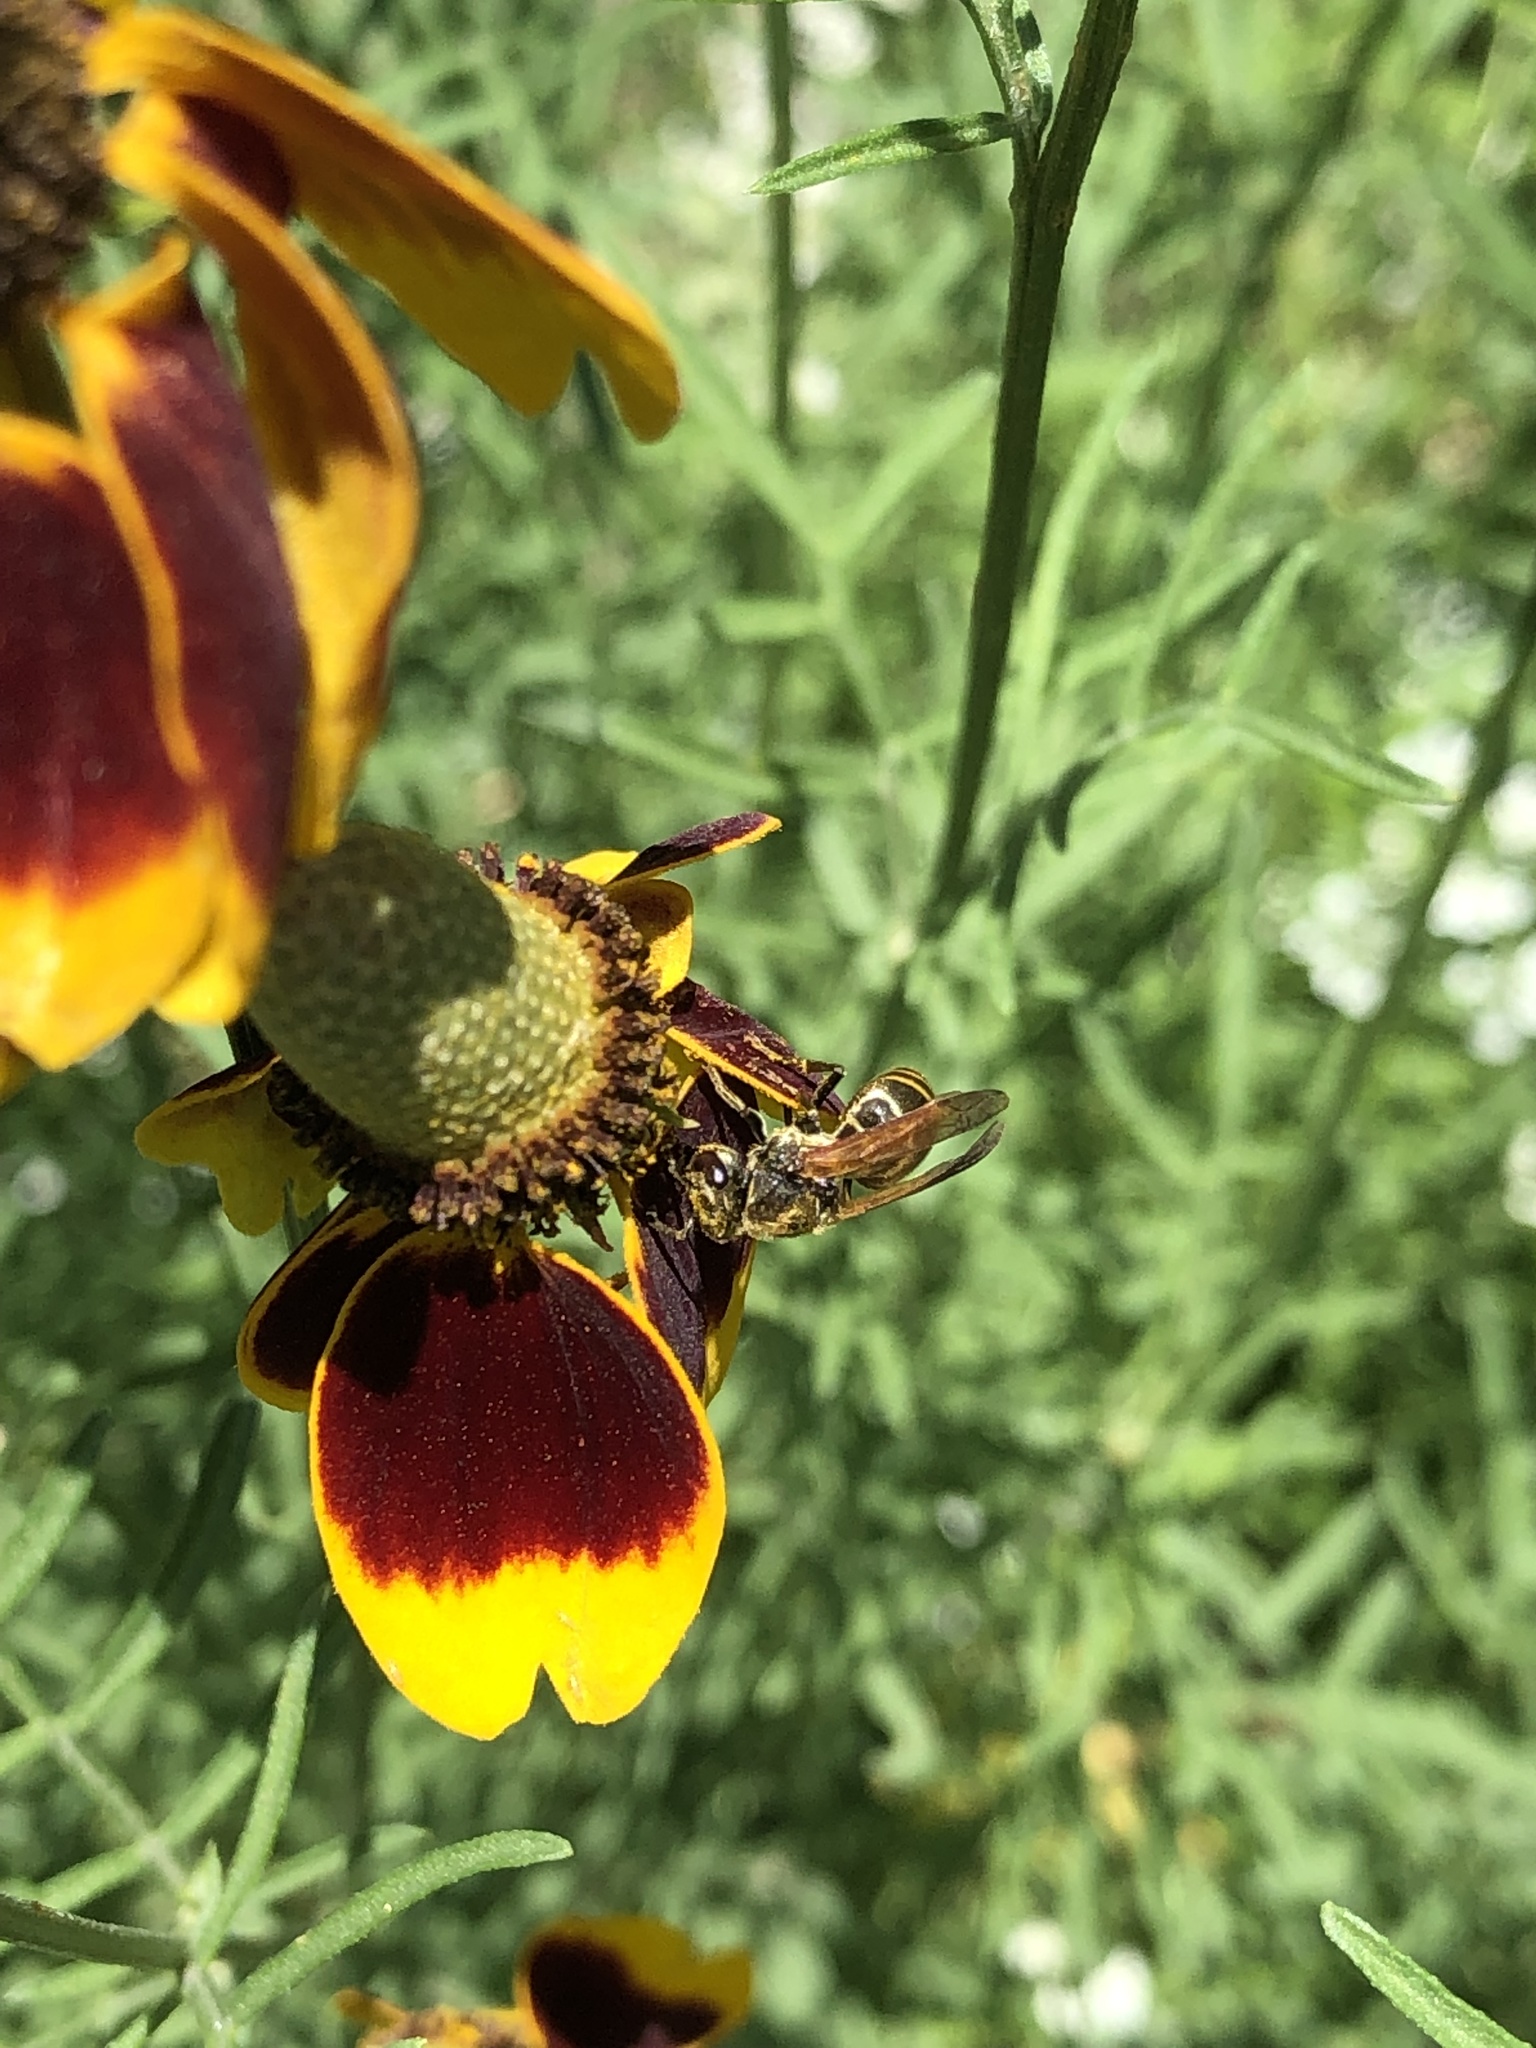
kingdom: Animalia
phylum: Arthropoda
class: Insecta
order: Hymenoptera
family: Vespidae
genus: Brachygastra
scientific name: Brachygastra mellifica
